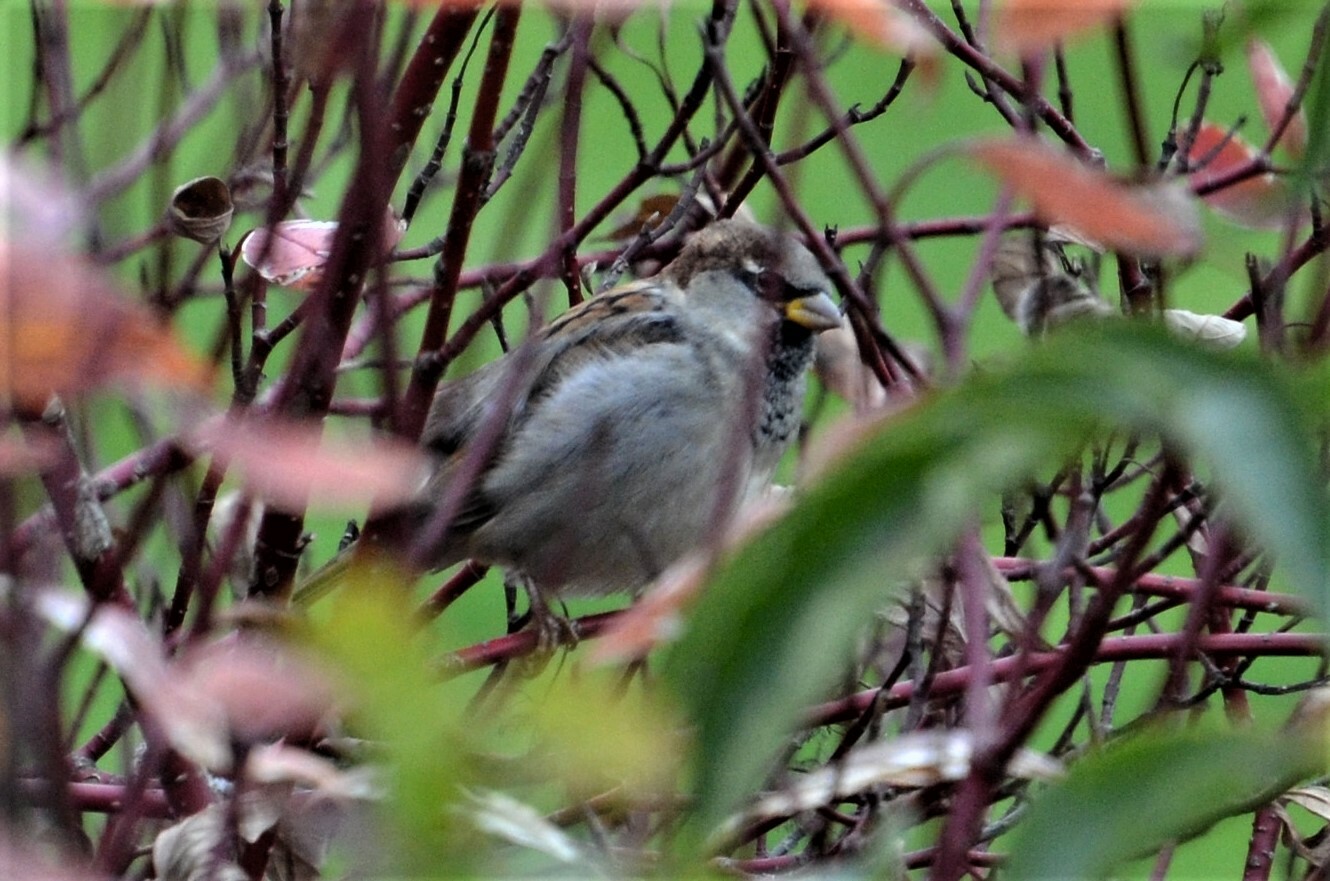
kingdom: Animalia
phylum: Chordata
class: Aves
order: Passeriformes
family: Passeridae
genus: Passer
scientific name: Passer domesticus
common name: House sparrow
